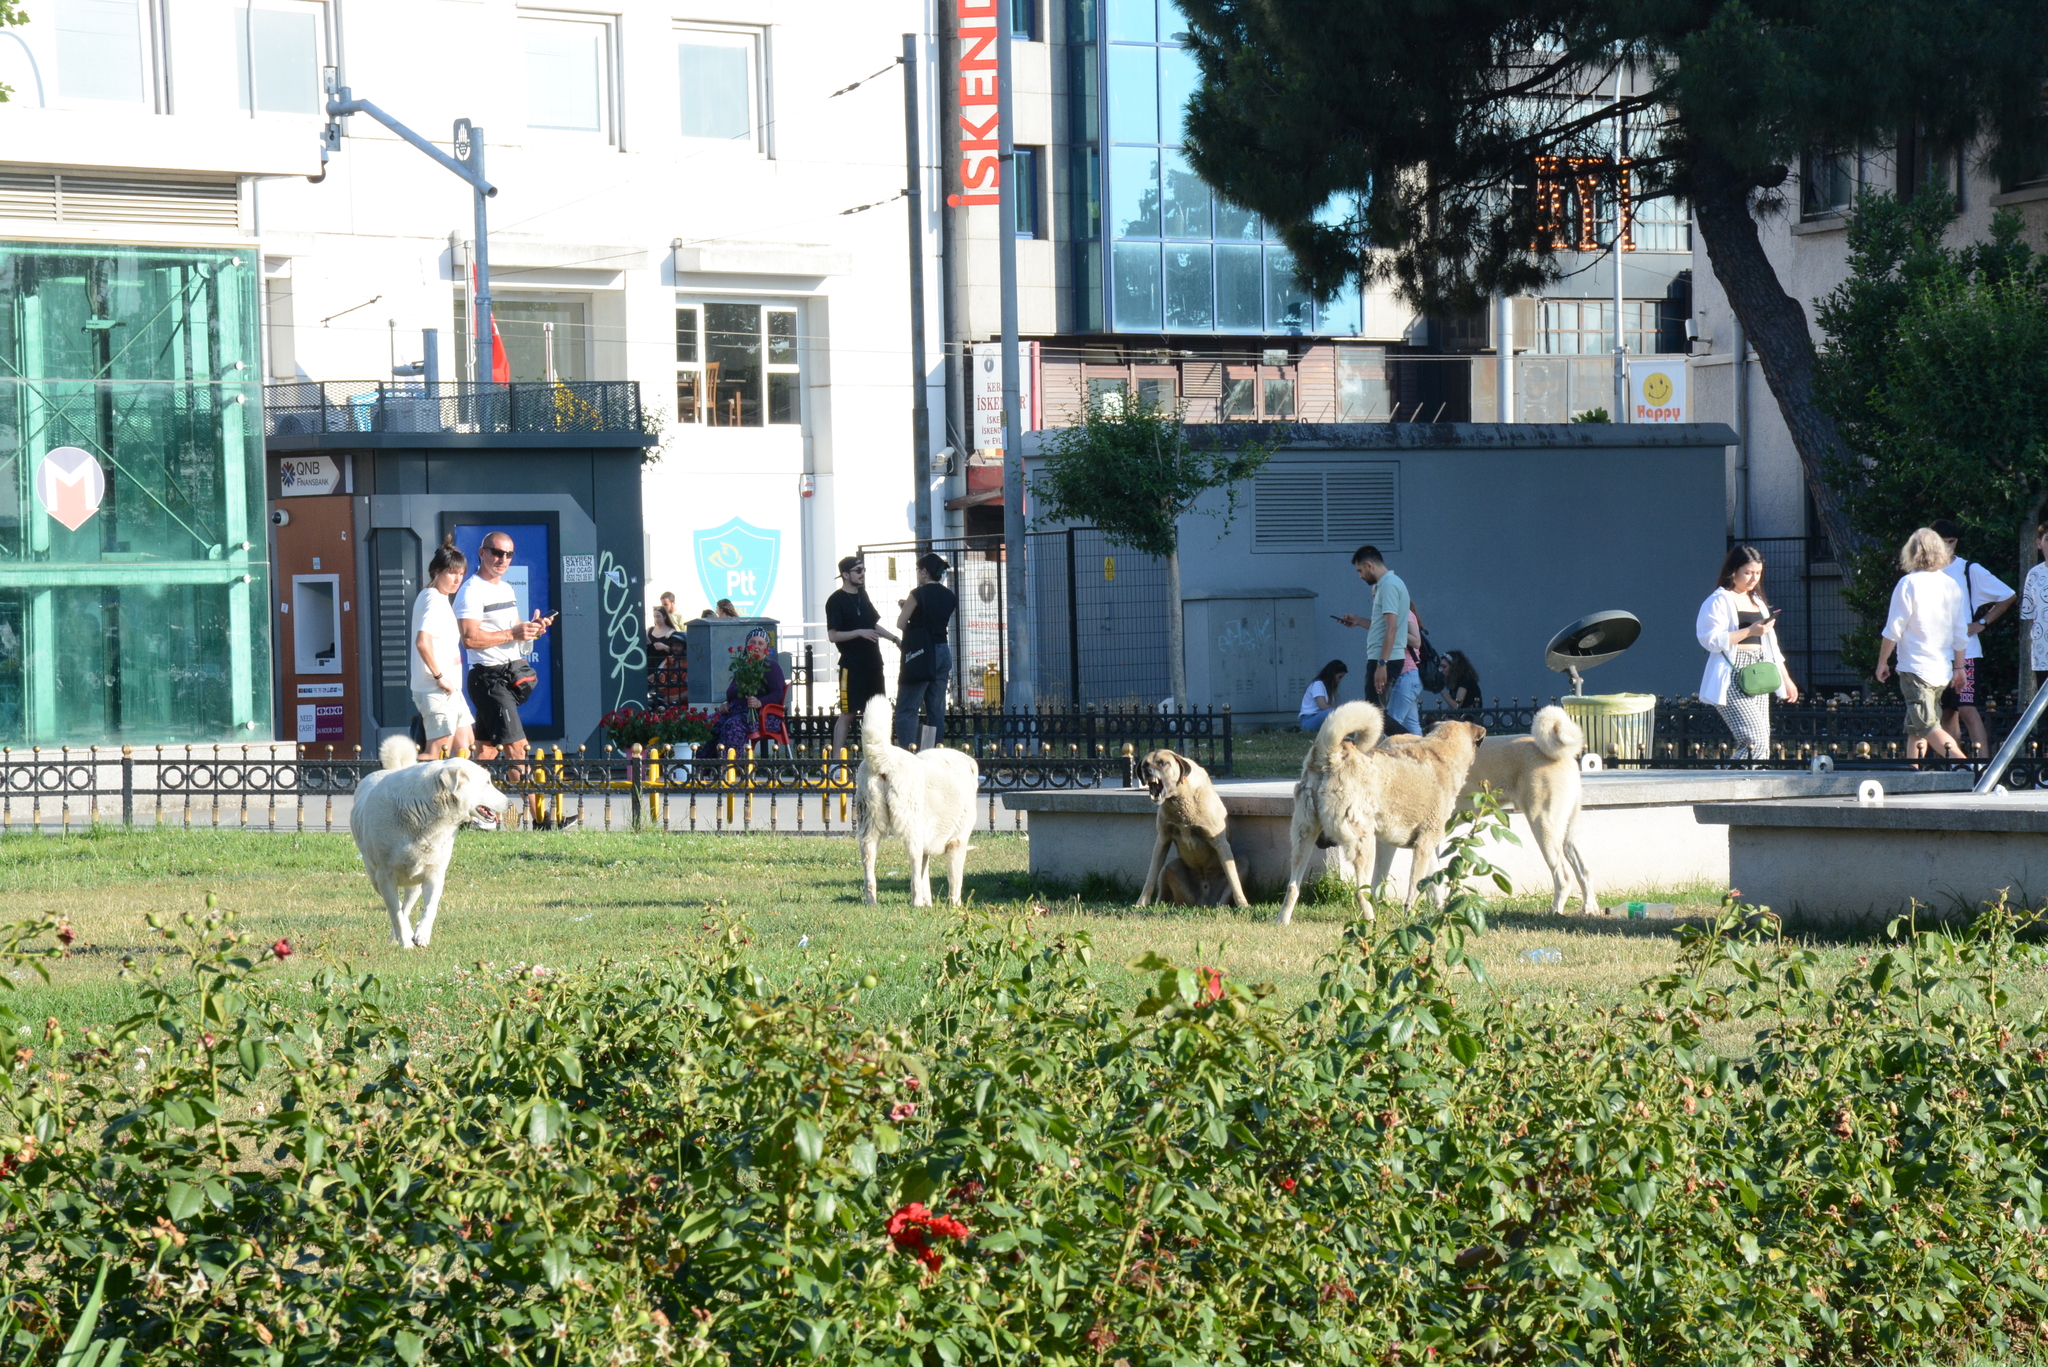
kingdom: Animalia
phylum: Chordata
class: Mammalia
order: Carnivora
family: Canidae
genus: Canis
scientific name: Canis lupus
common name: Gray wolf
